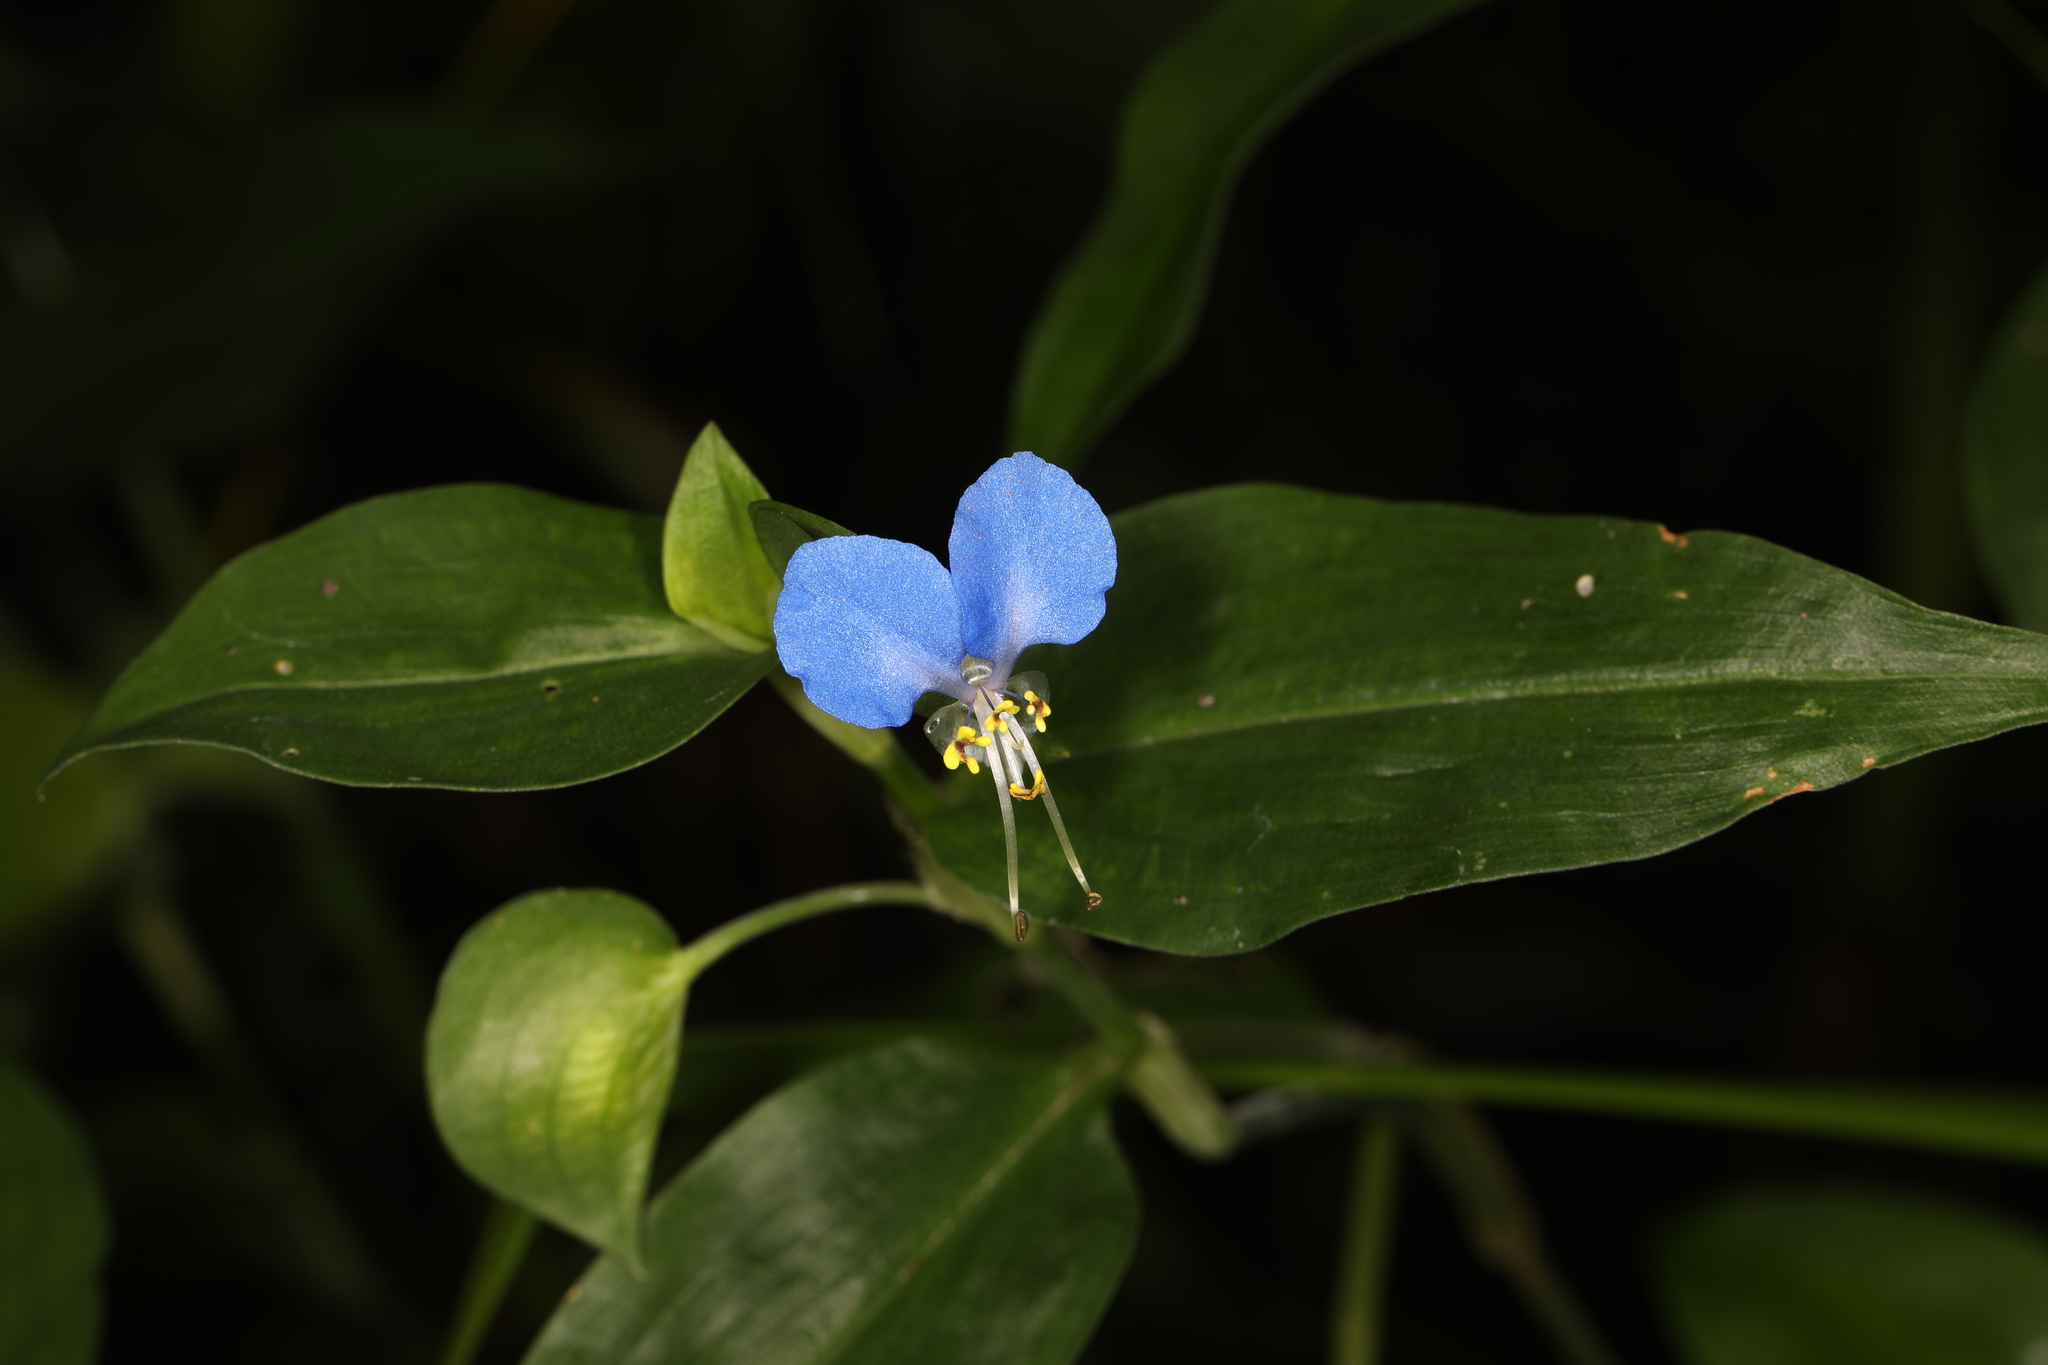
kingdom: Plantae
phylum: Tracheophyta
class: Liliopsida
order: Commelinales
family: Commelinaceae
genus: Commelina
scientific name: Commelina communis
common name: Asiatic dayflower
